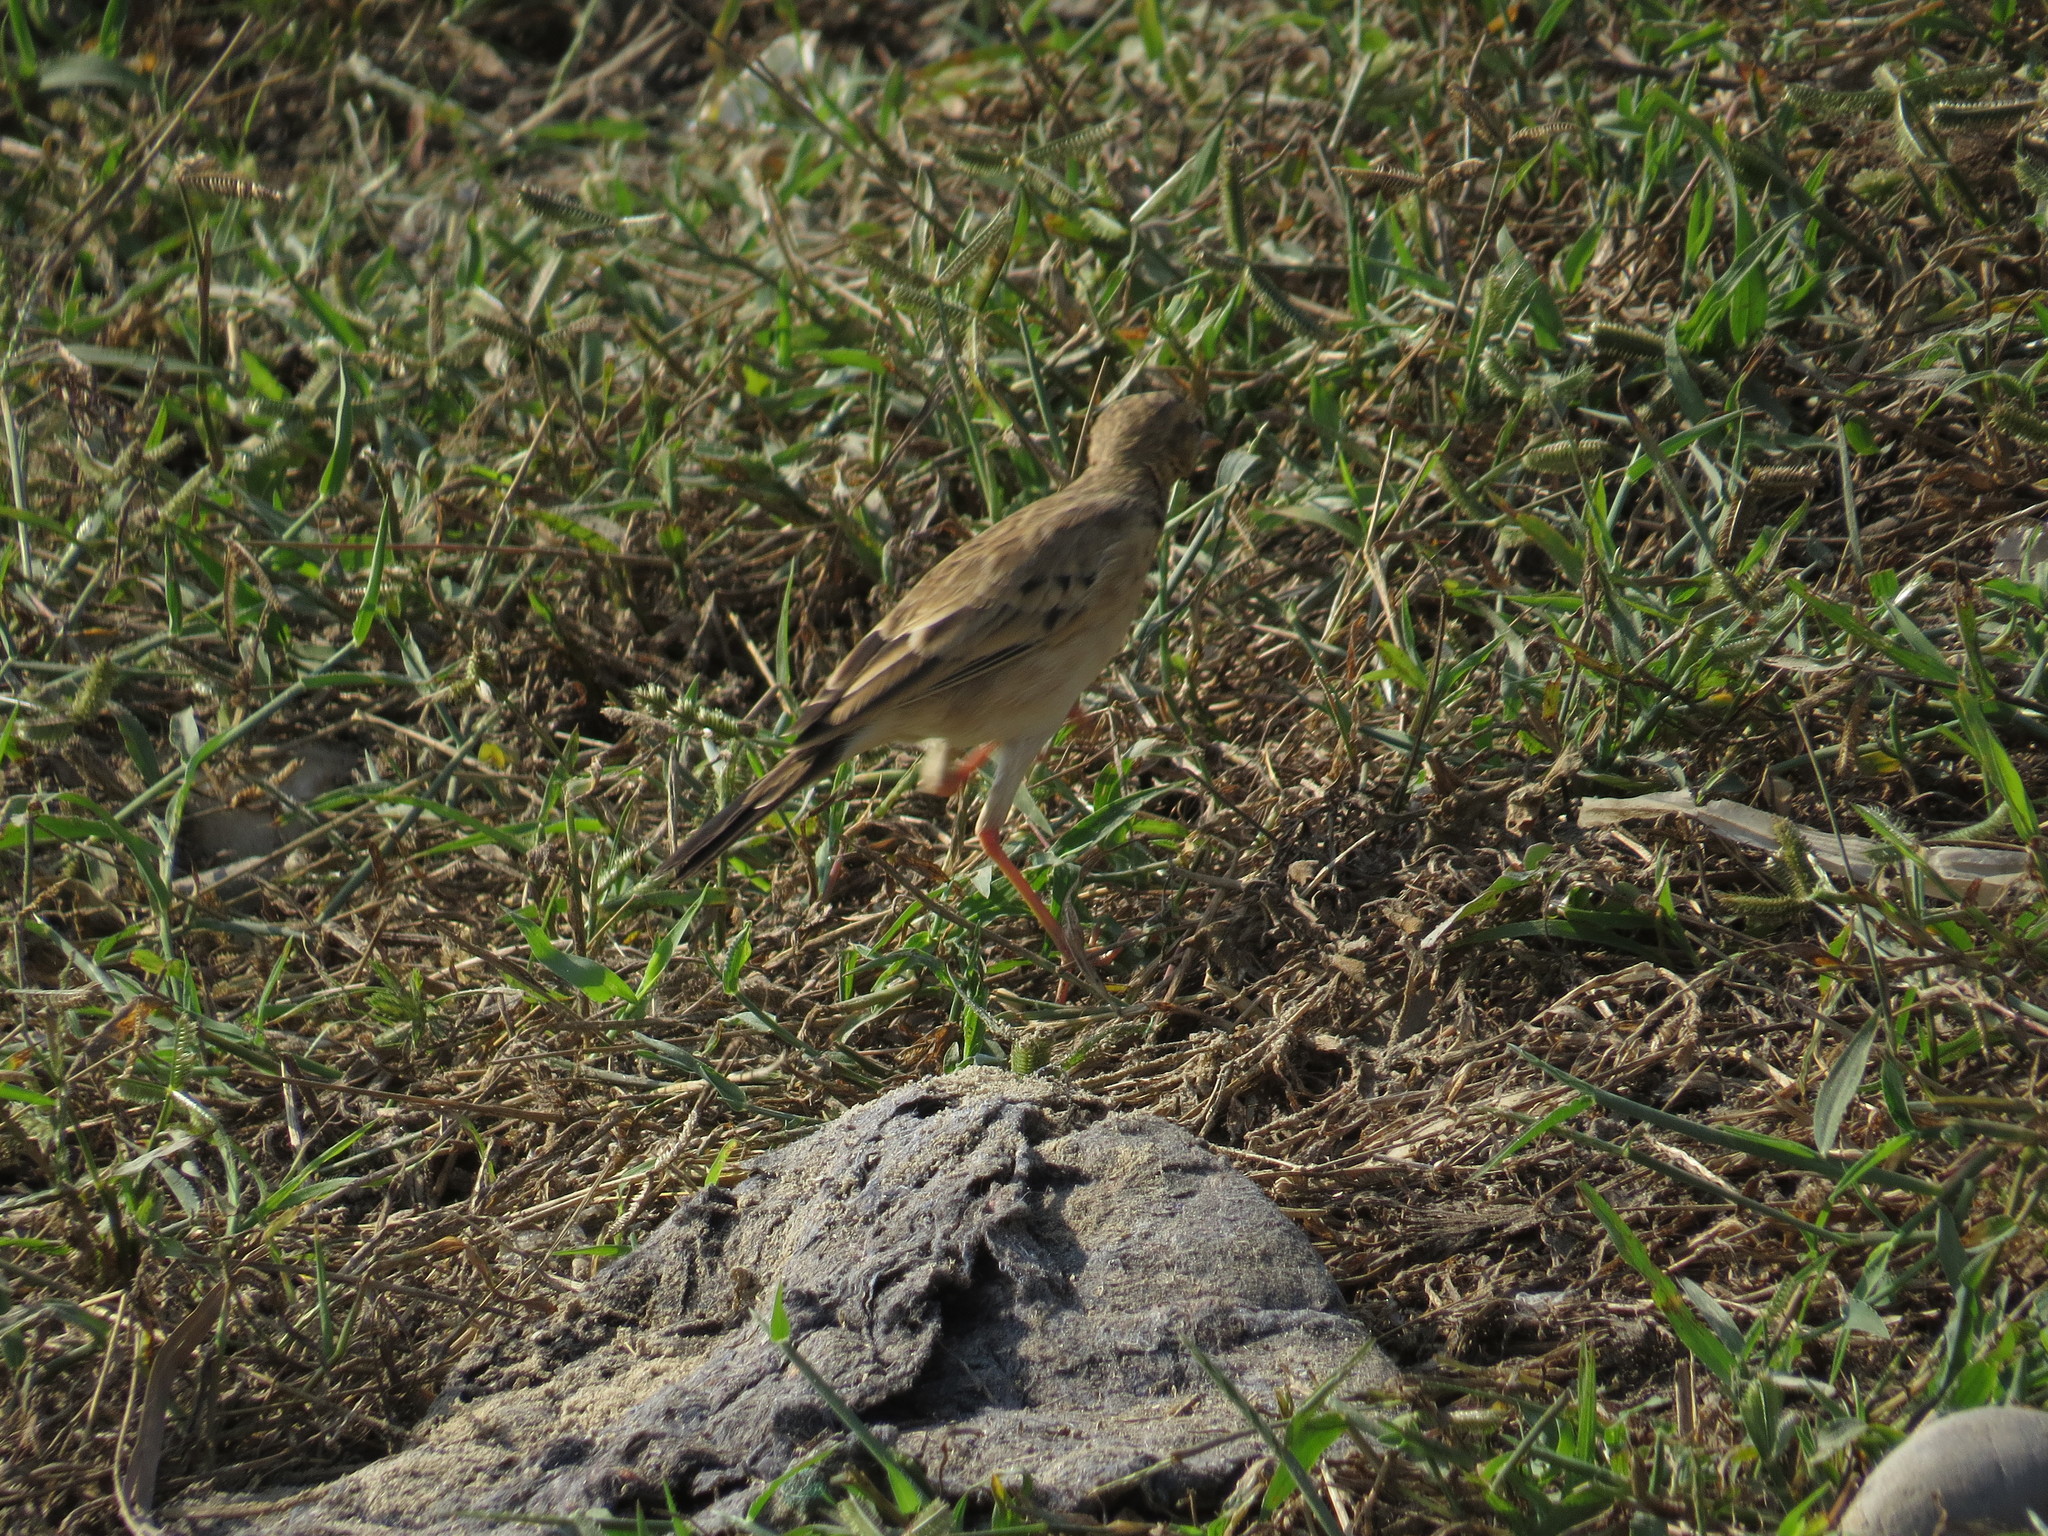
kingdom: Animalia
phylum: Chordata
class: Aves
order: Passeriformes
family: Motacillidae
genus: Anthus
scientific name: Anthus rufulus
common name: Paddyfield pipit
